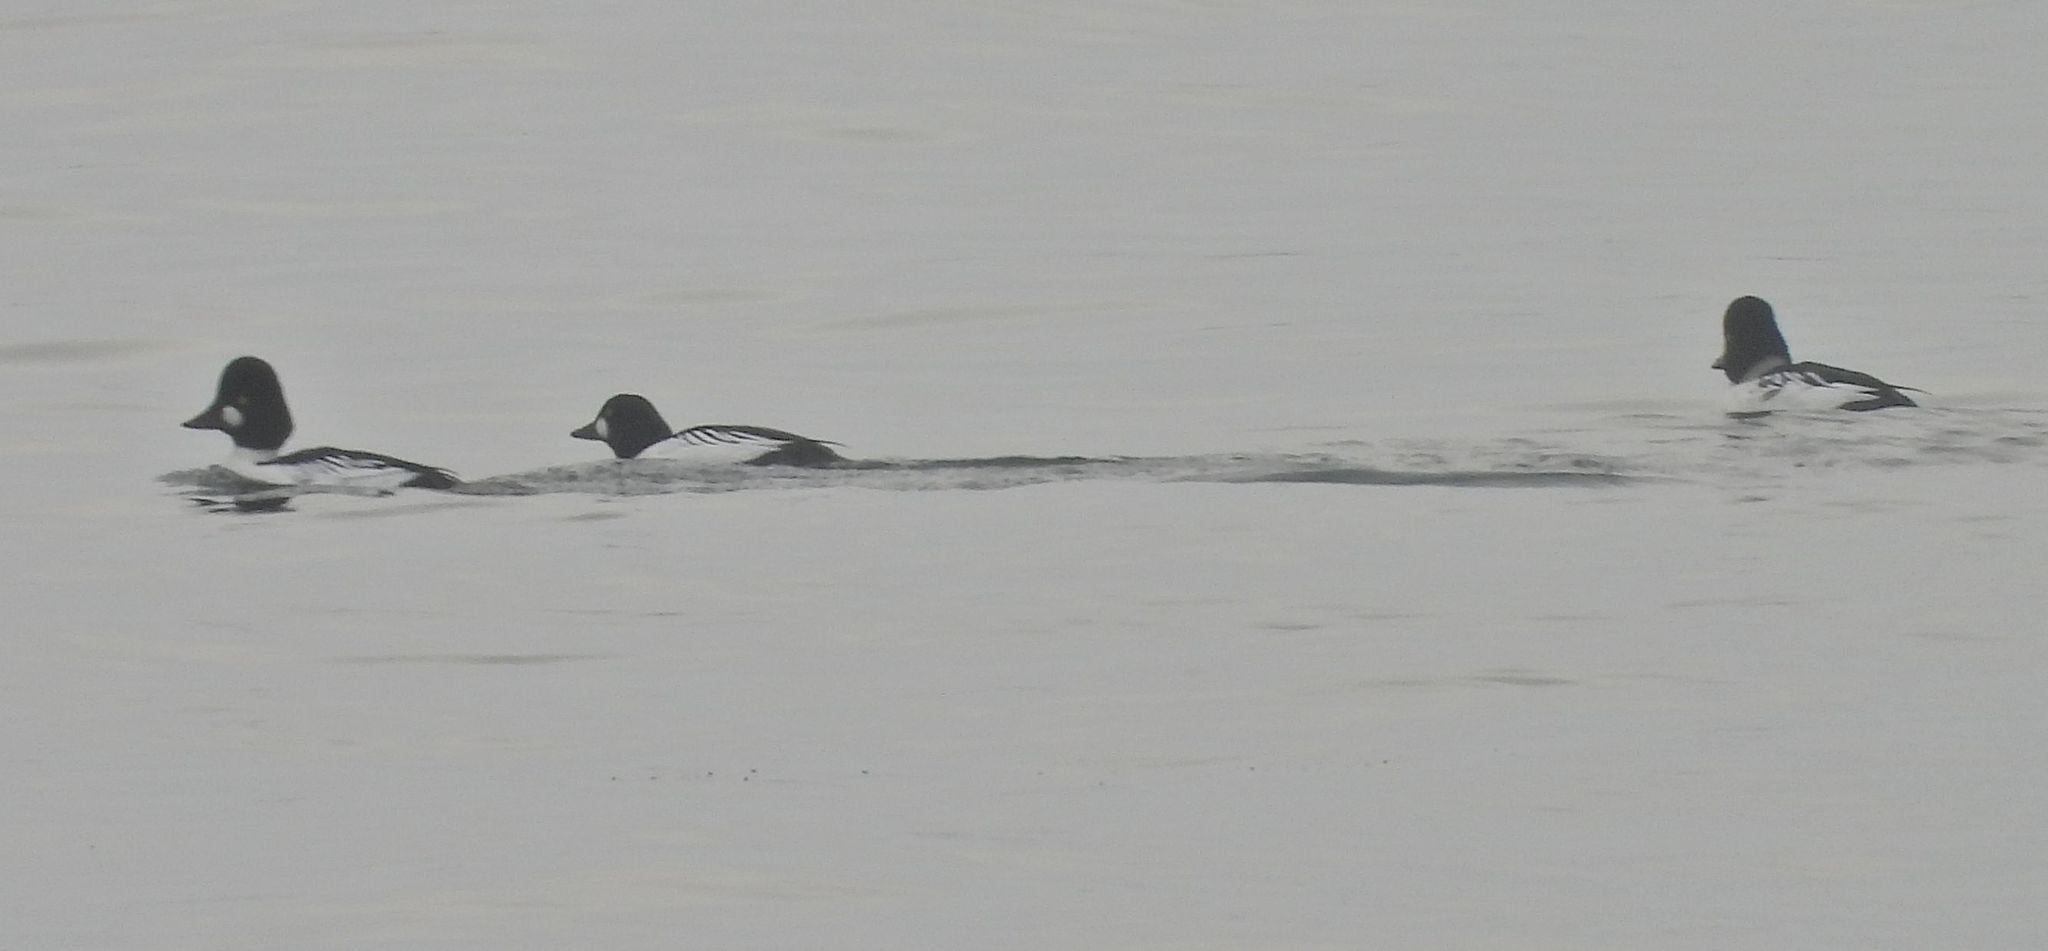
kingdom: Animalia
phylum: Chordata
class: Aves
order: Anseriformes
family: Anatidae
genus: Bucephala
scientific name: Bucephala clangula
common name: Common goldeneye
